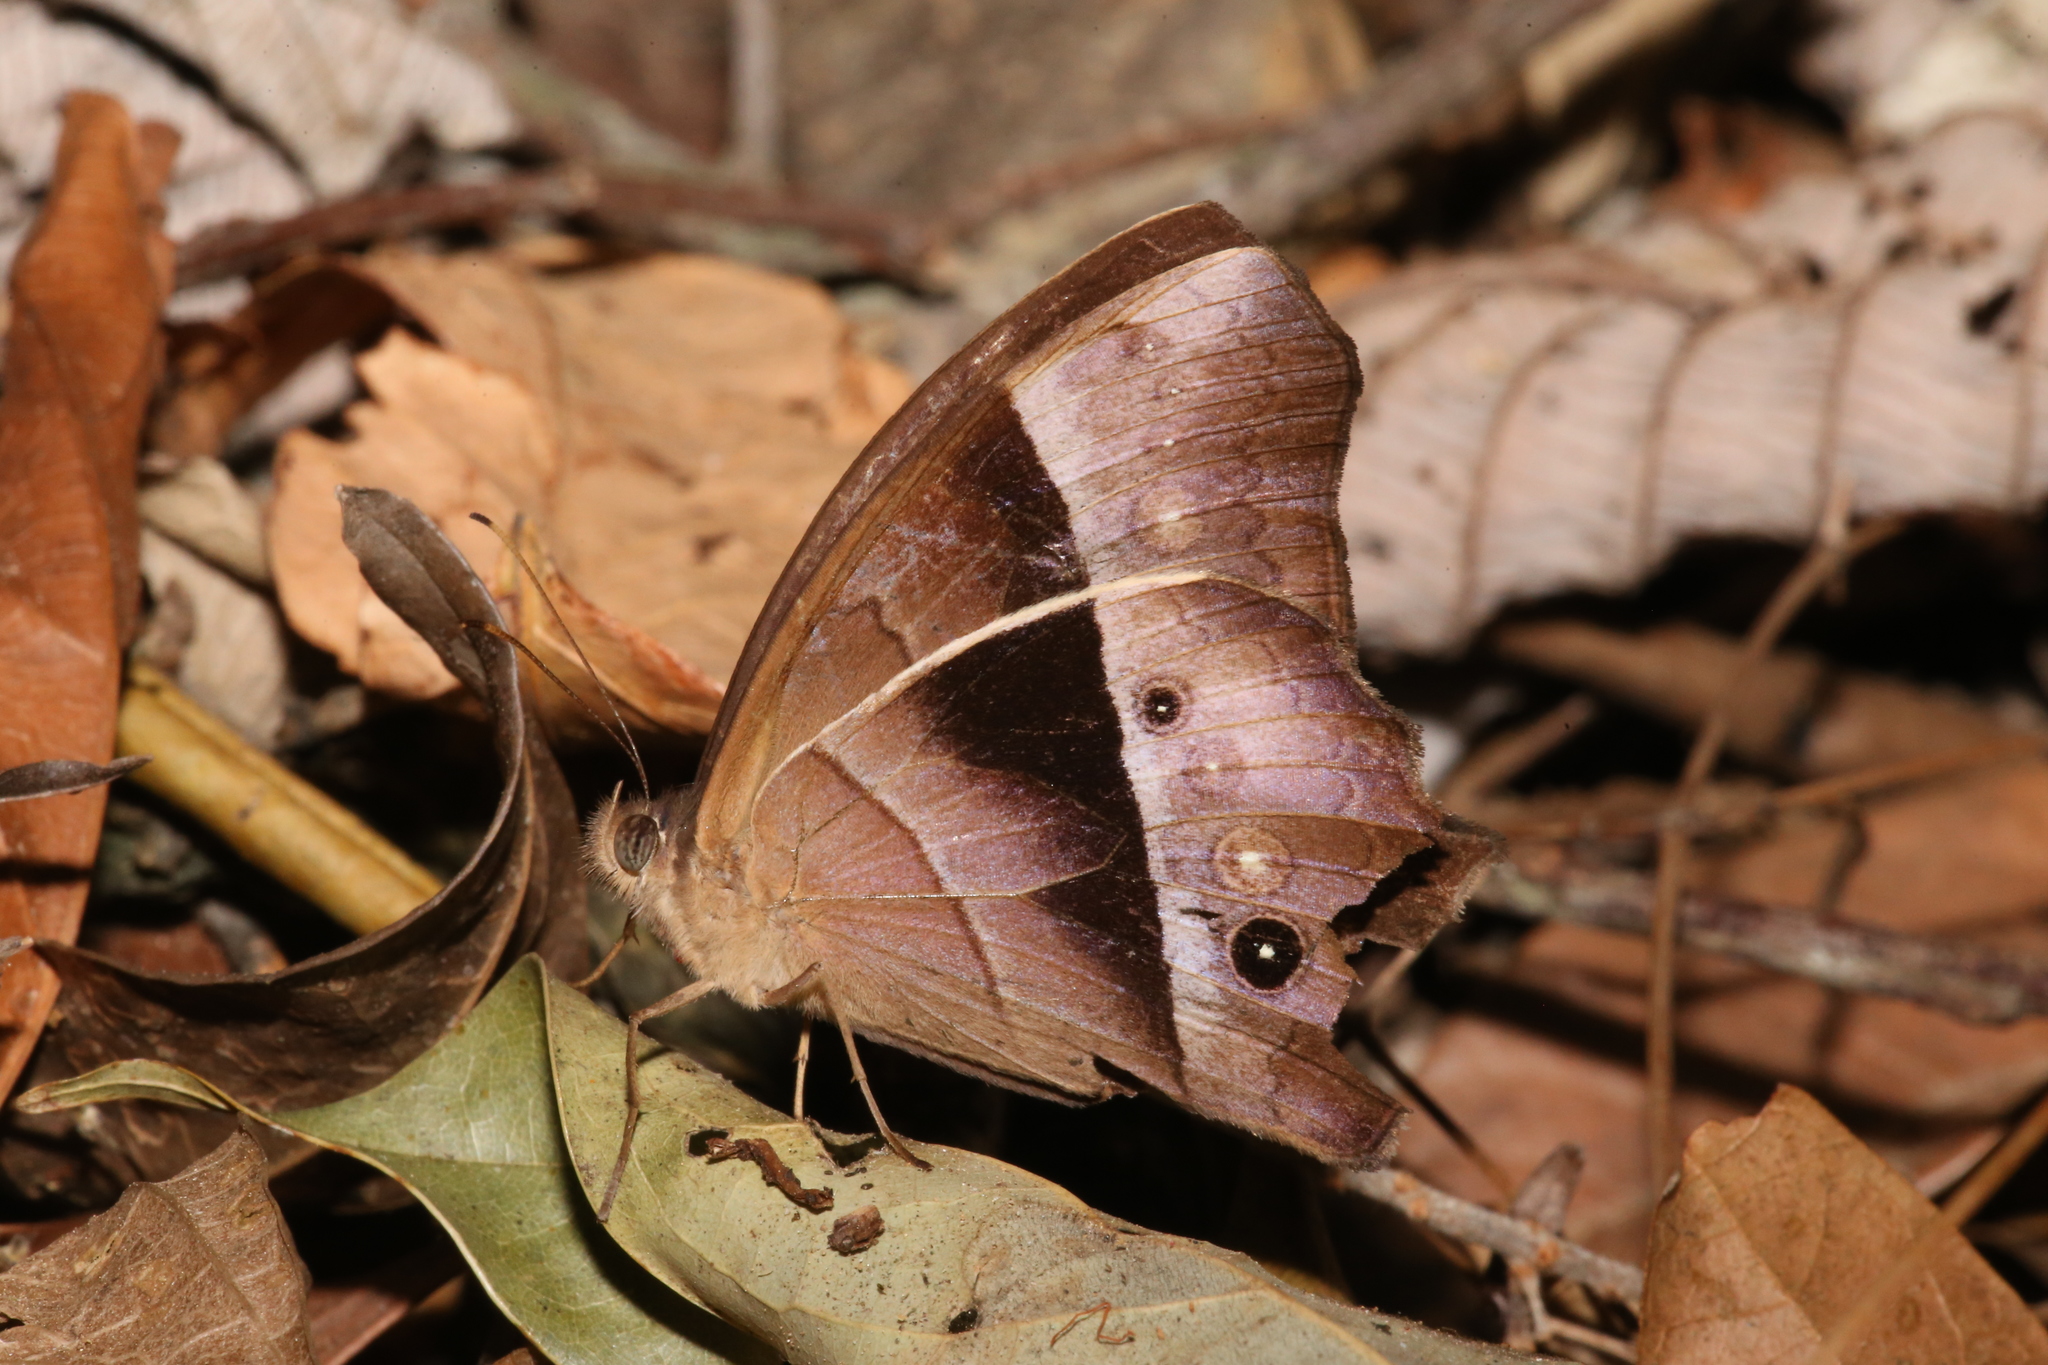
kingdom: Animalia
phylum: Arthropoda
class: Insecta
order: Lepidoptera
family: Nymphalidae
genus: Taygetis
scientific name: Taygetis andromeda
